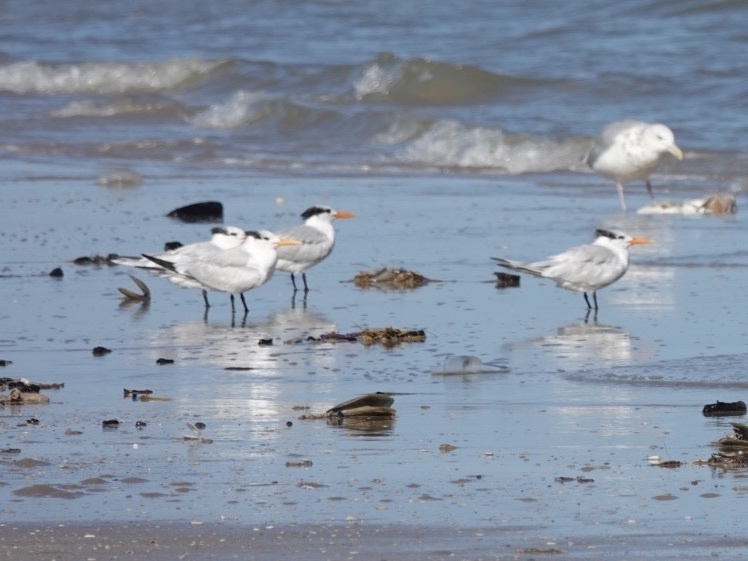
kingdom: Animalia
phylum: Chordata
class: Aves
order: Charadriiformes
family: Laridae
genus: Thalasseus
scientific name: Thalasseus maximus
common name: Royal tern
